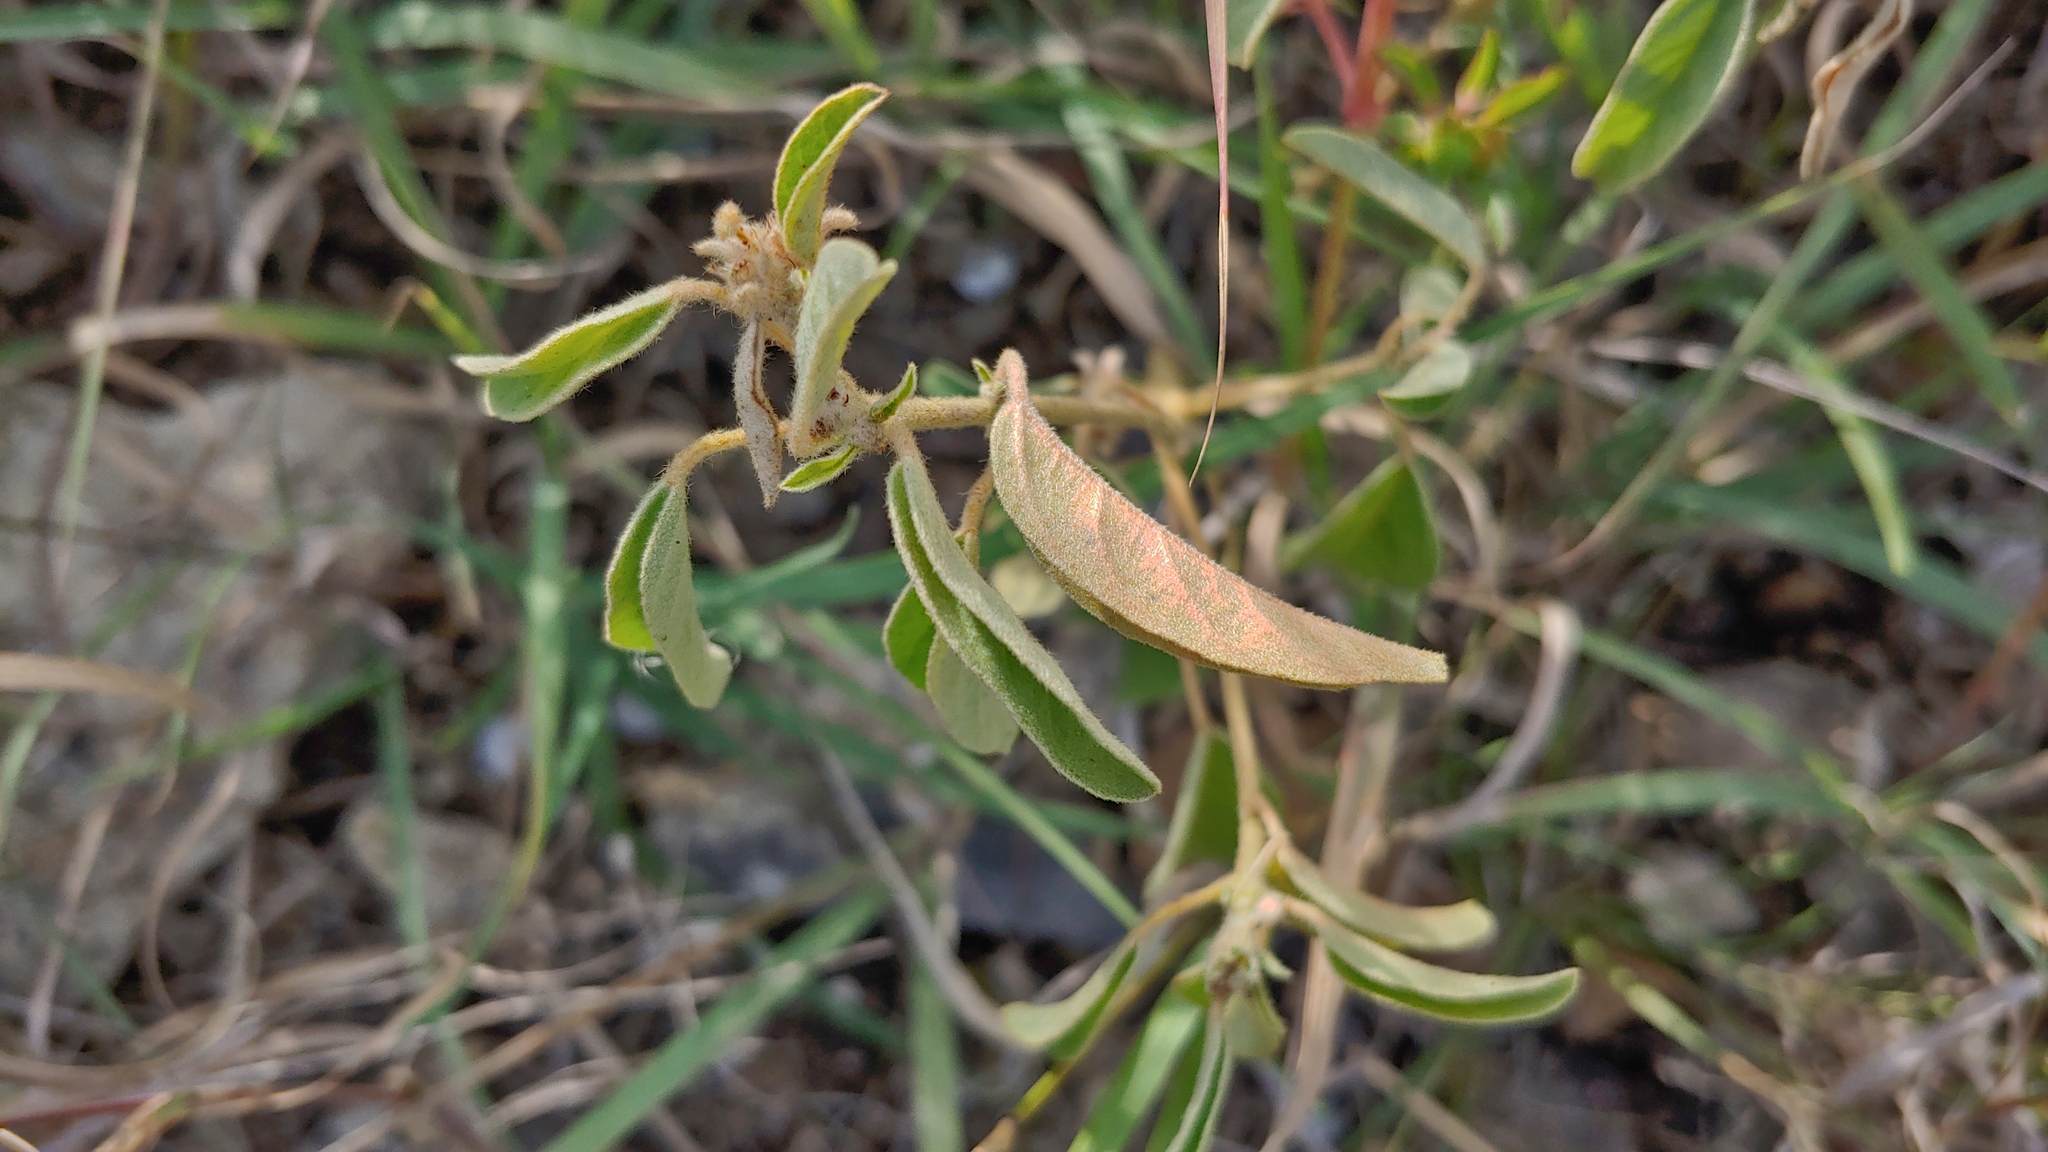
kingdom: Plantae
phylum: Tracheophyta
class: Magnoliopsida
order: Malpighiales
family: Euphorbiaceae
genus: Croton
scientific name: Croton capitatus
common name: Woolly croton
